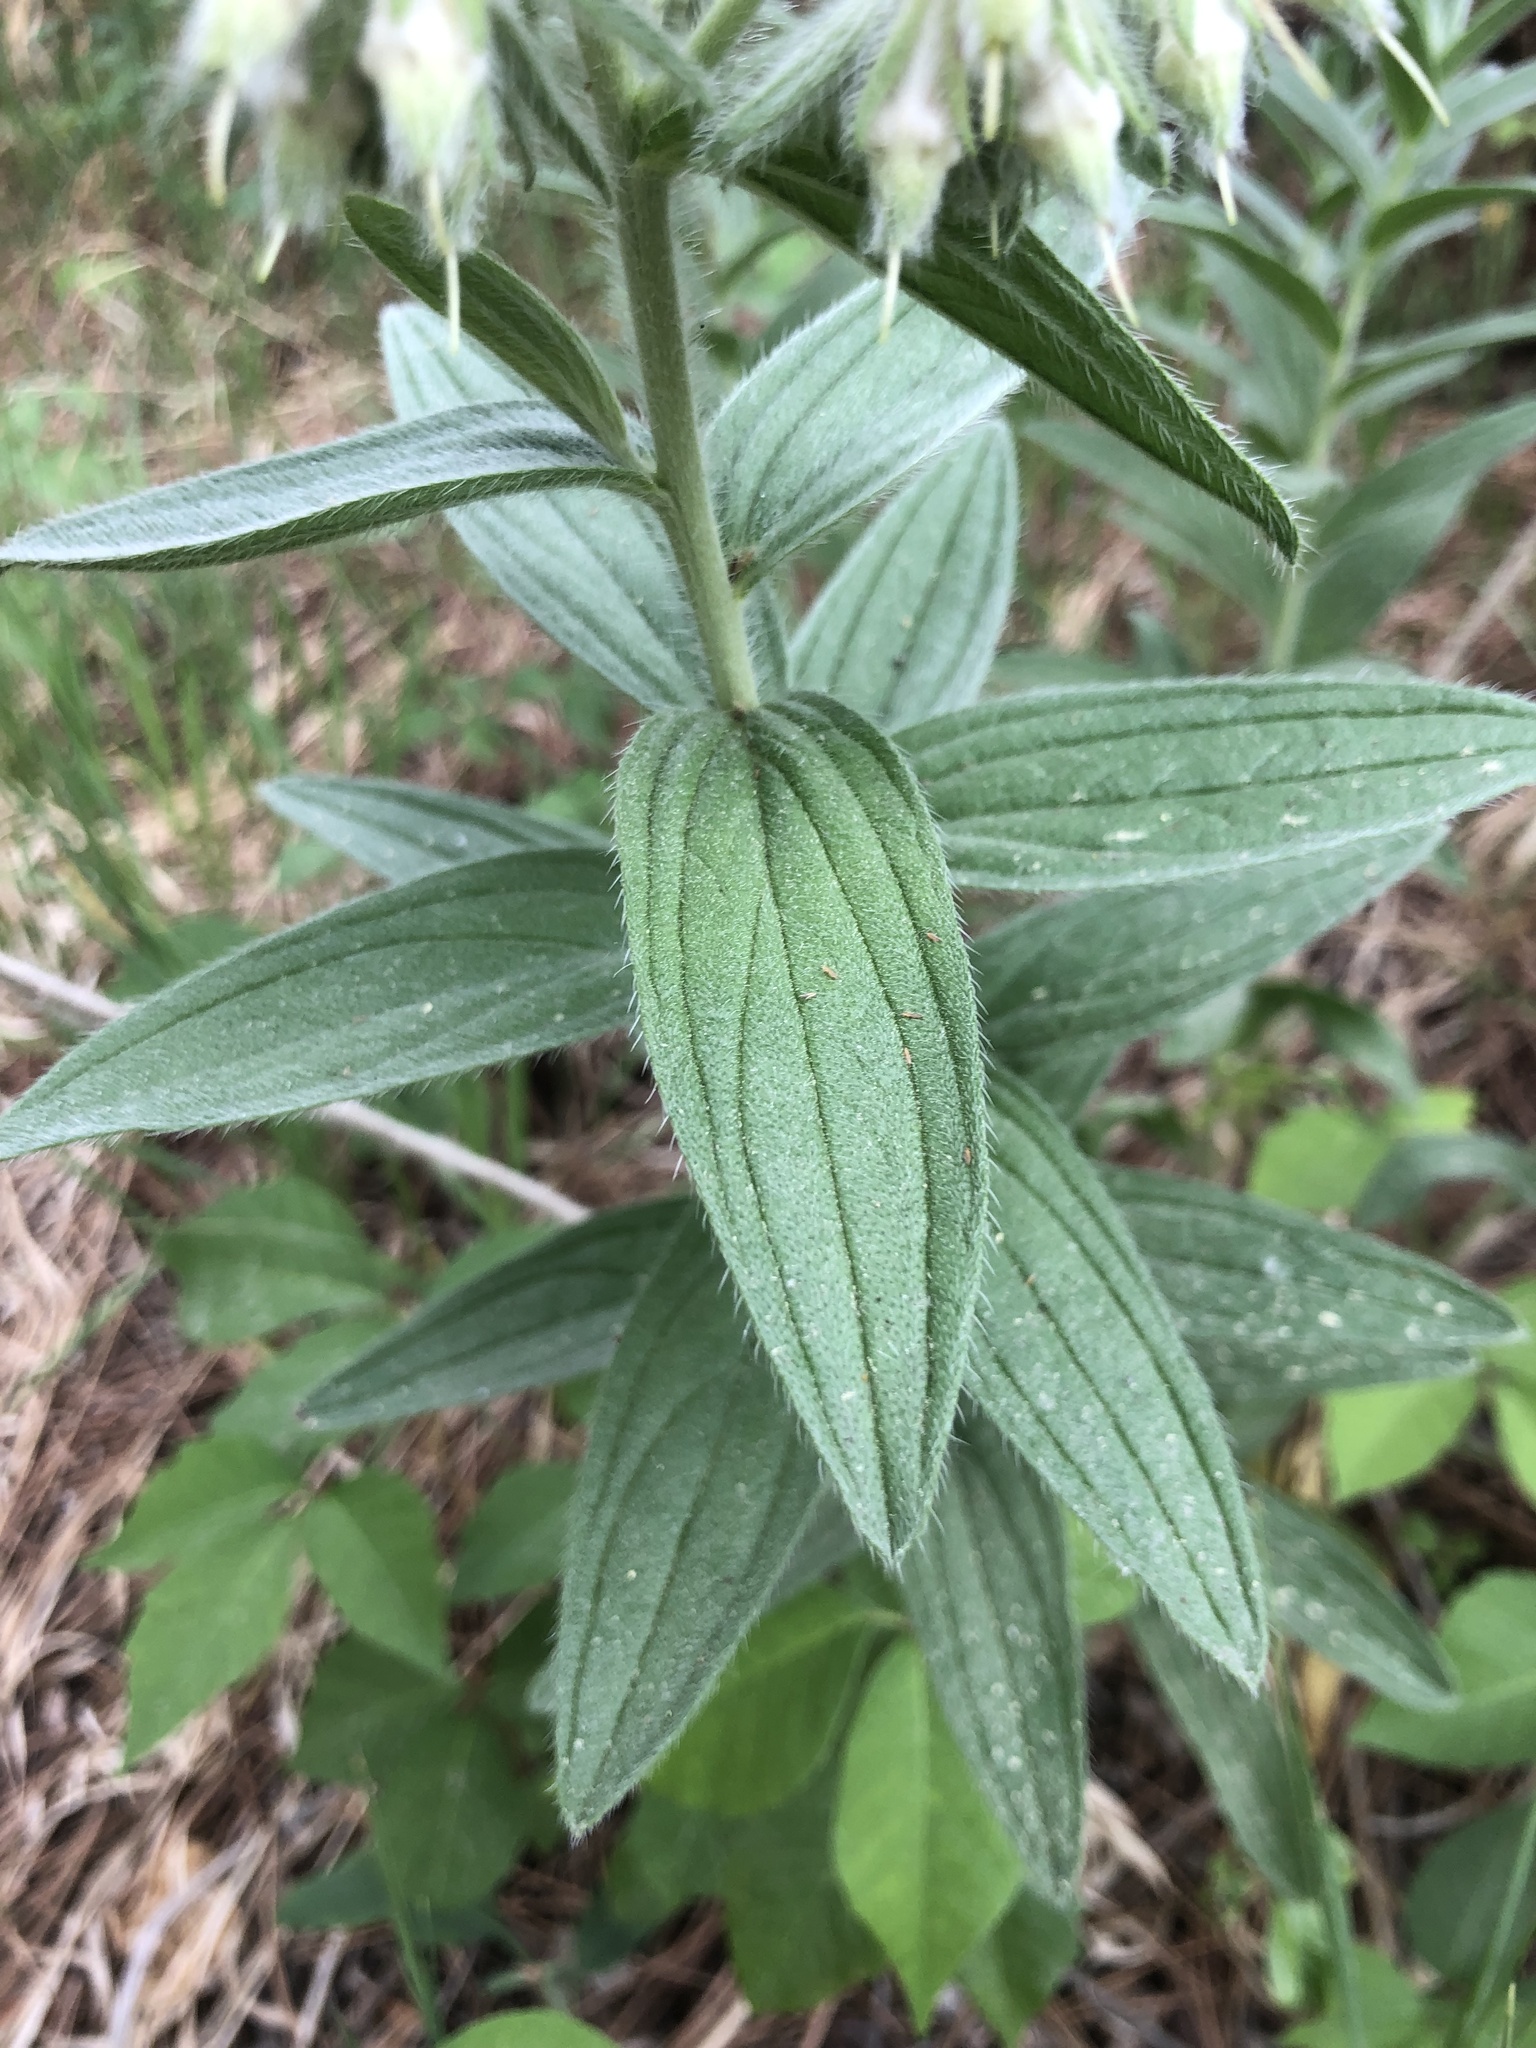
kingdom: Plantae
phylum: Tracheophyta
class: Magnoliopsida
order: Boraginales
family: Boraginaceae
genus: Lithospermum
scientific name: Lithospermum occidentale
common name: Western false gromwell
